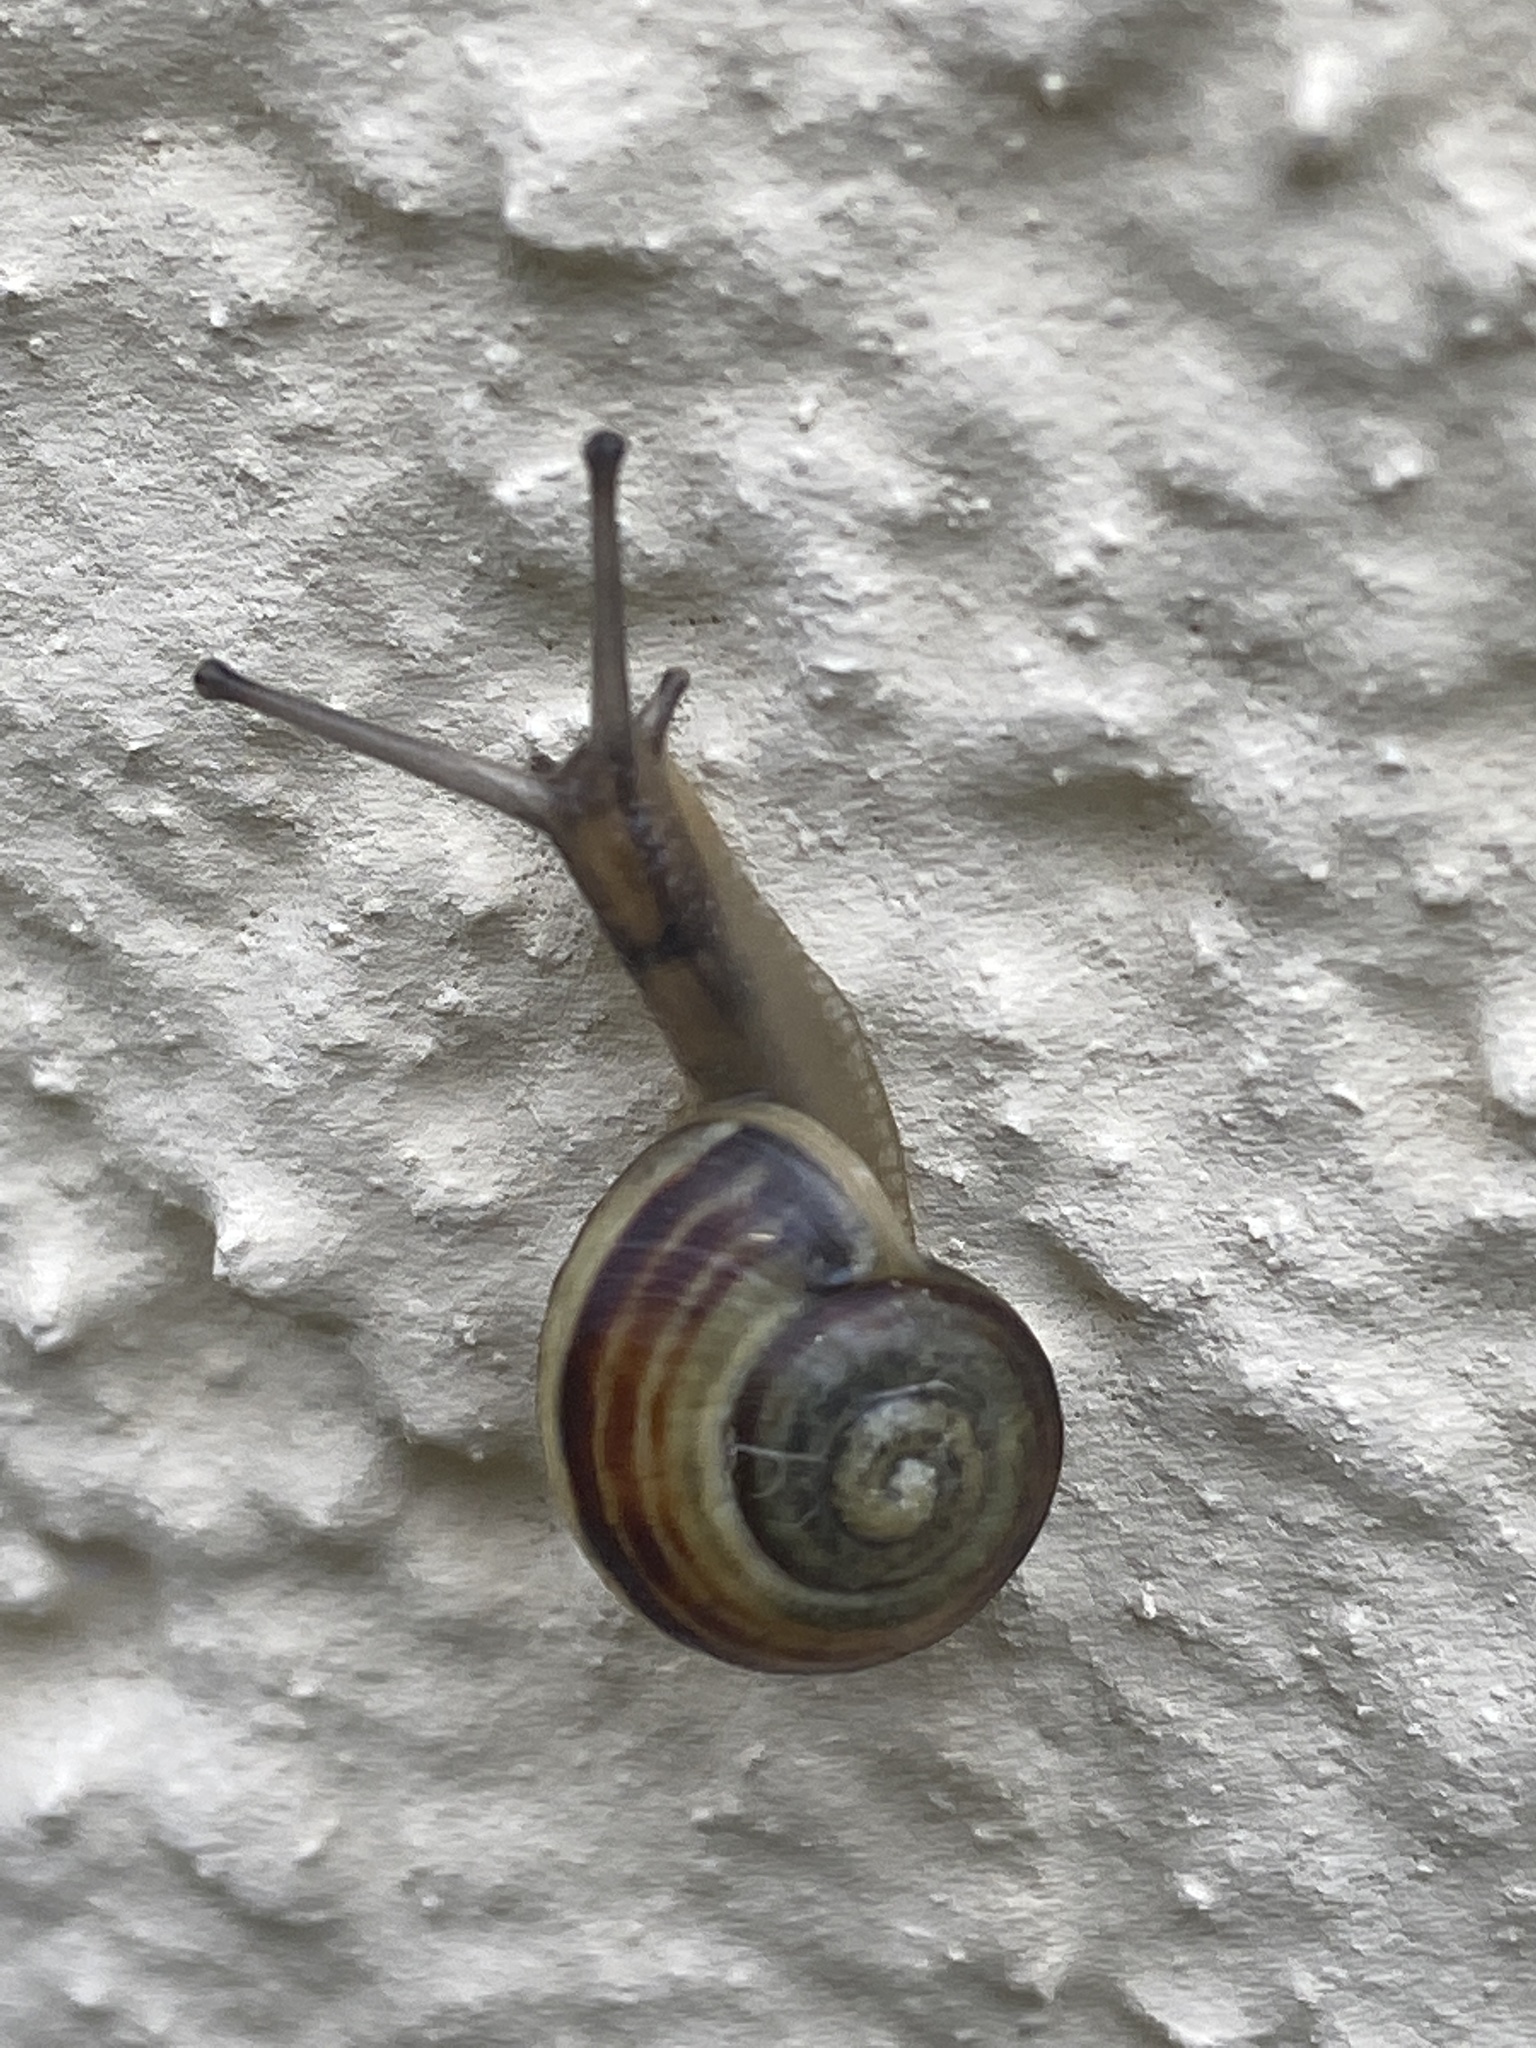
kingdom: Animalia
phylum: Mollusca
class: Gastropoda
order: Stylommatophora
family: Helicidae
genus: Cepaea
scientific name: Cepaea
